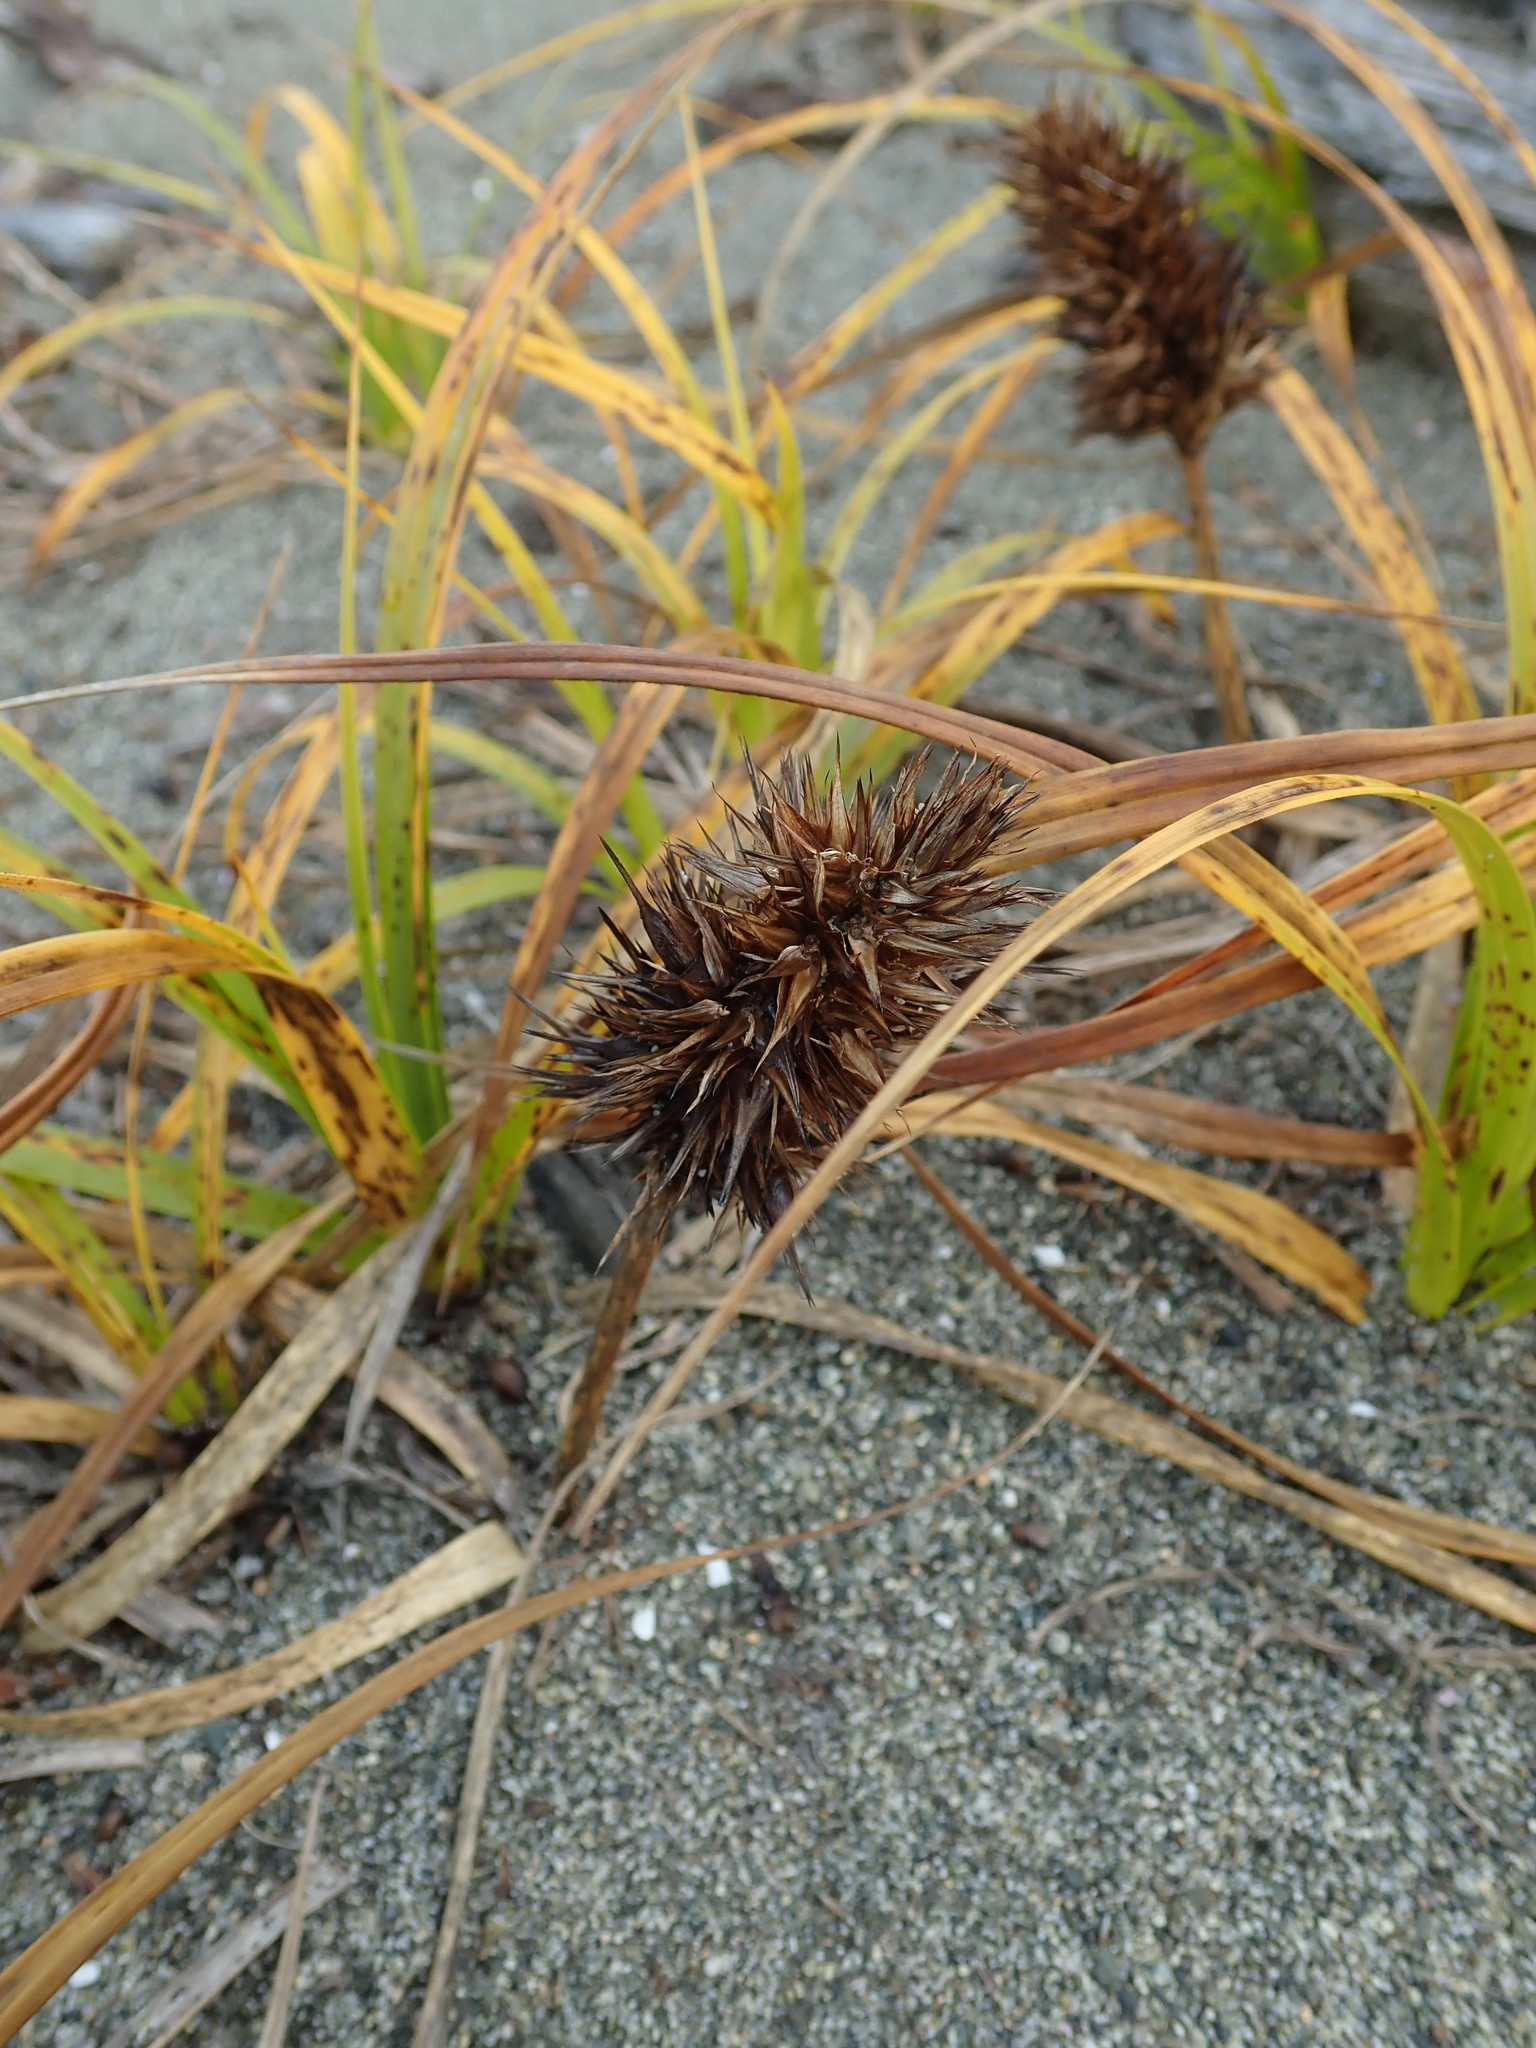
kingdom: Plantae
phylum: Tracheophyta
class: Liliopsida
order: Poales
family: Cyperaceae
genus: Carex
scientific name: Carex macrocephala
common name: Large-head sedge
